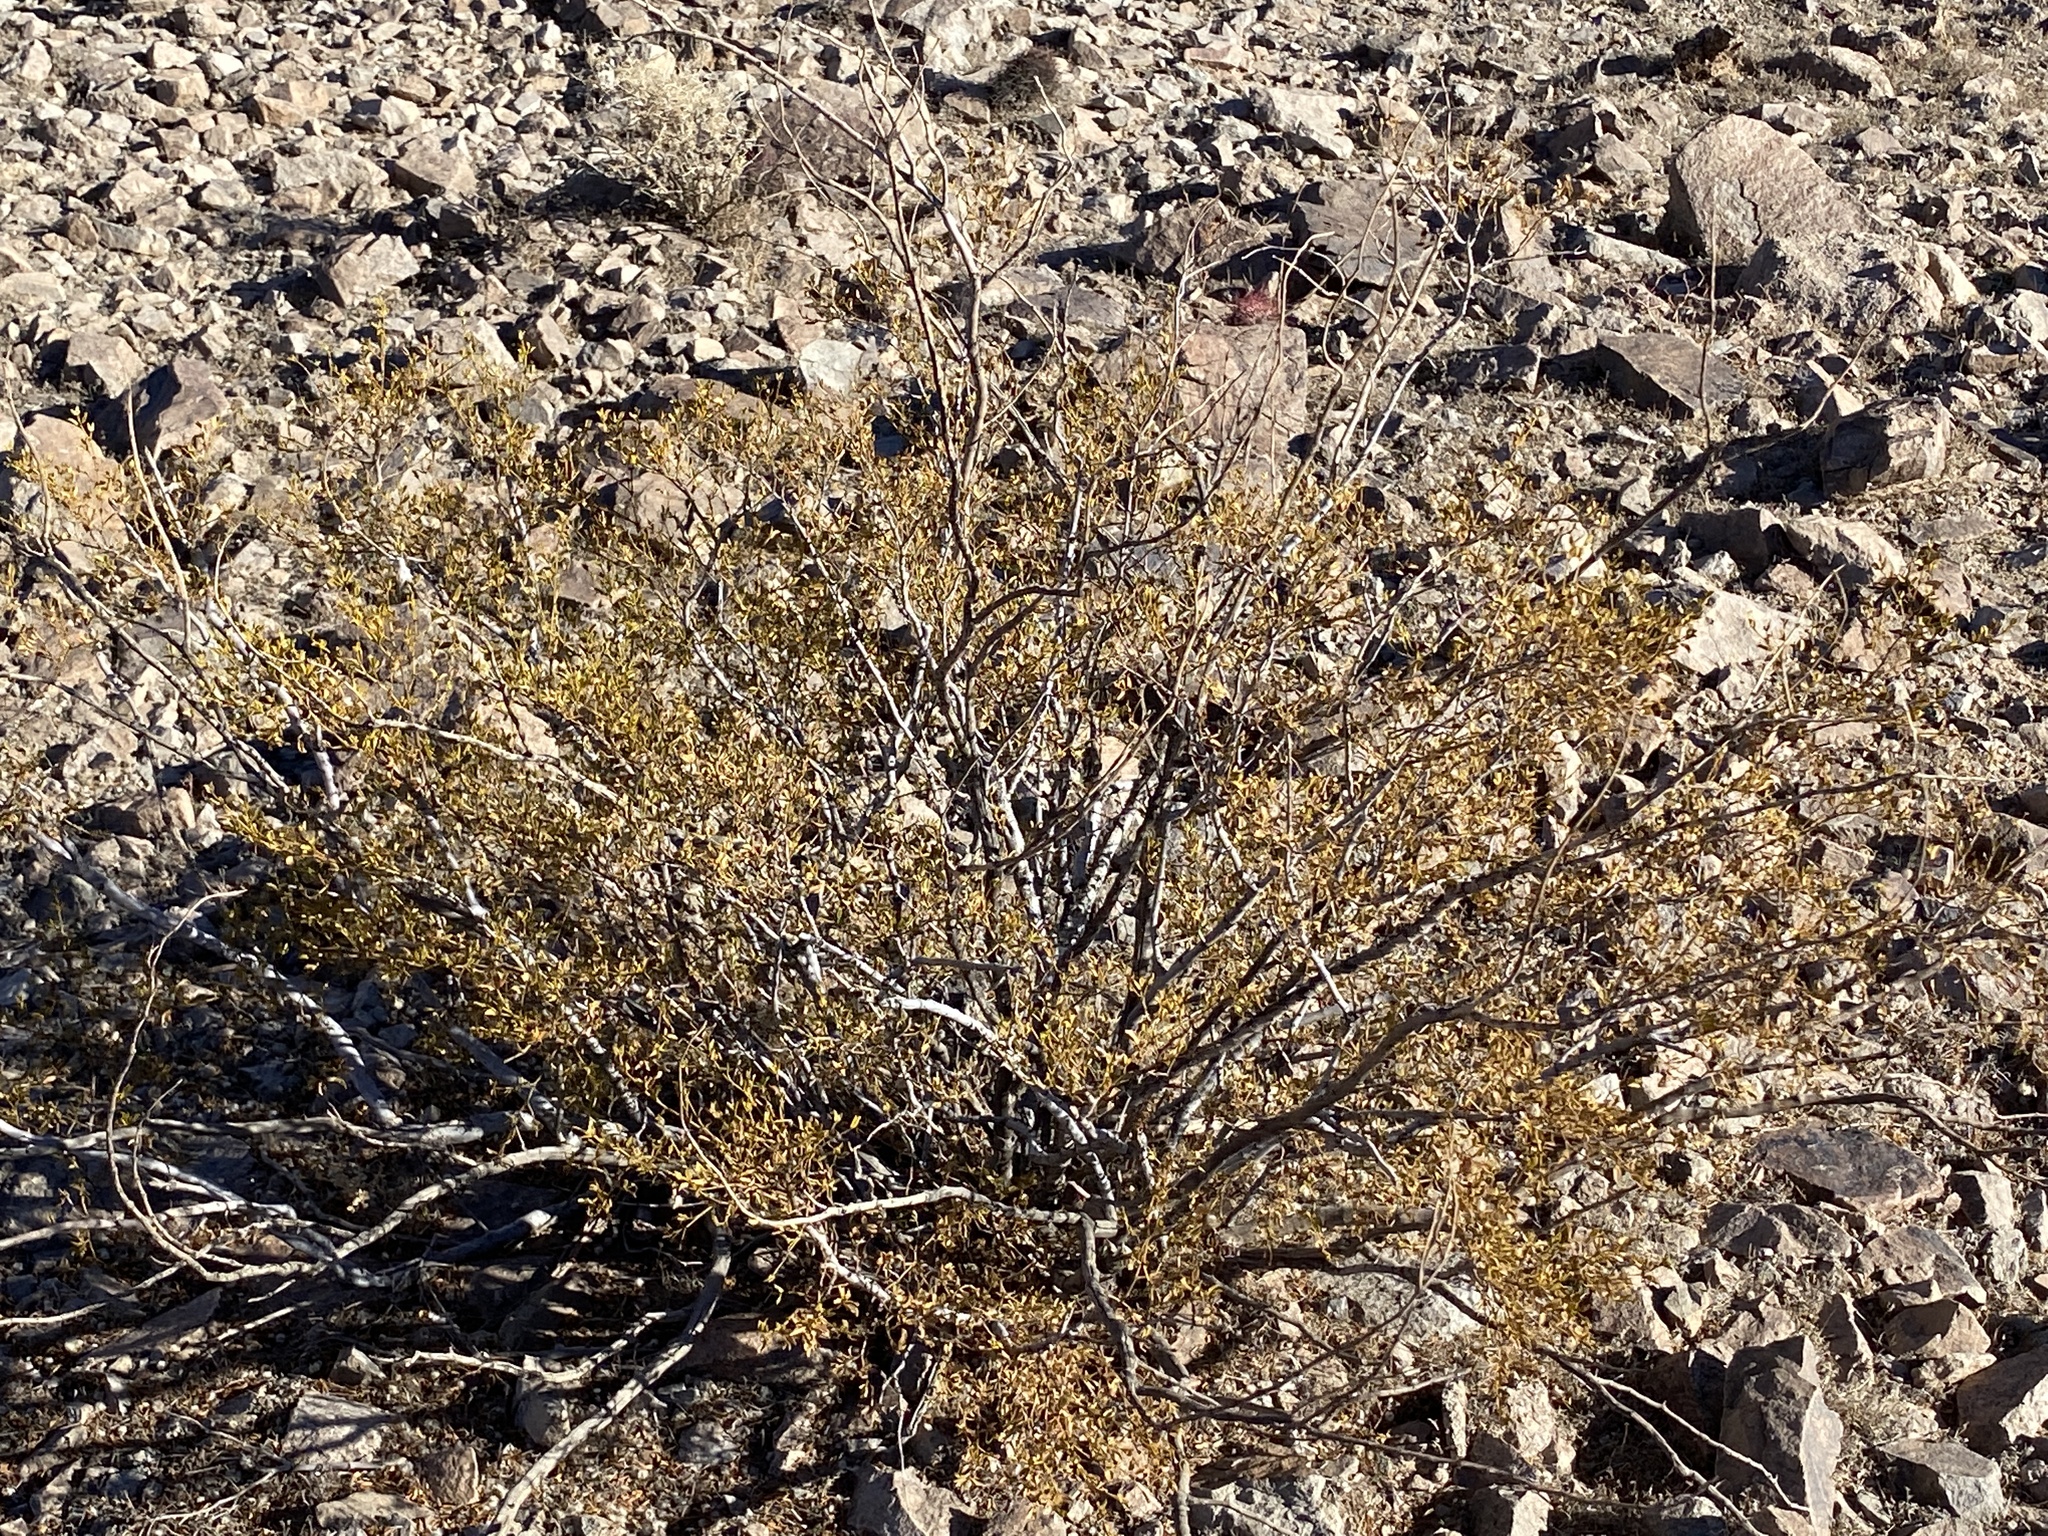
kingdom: Plantae
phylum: Tracheophyta
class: Magnoliopsida
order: Zygophyllales
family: Zygophyllaceae
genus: Larrea
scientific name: Larrea tridentata
